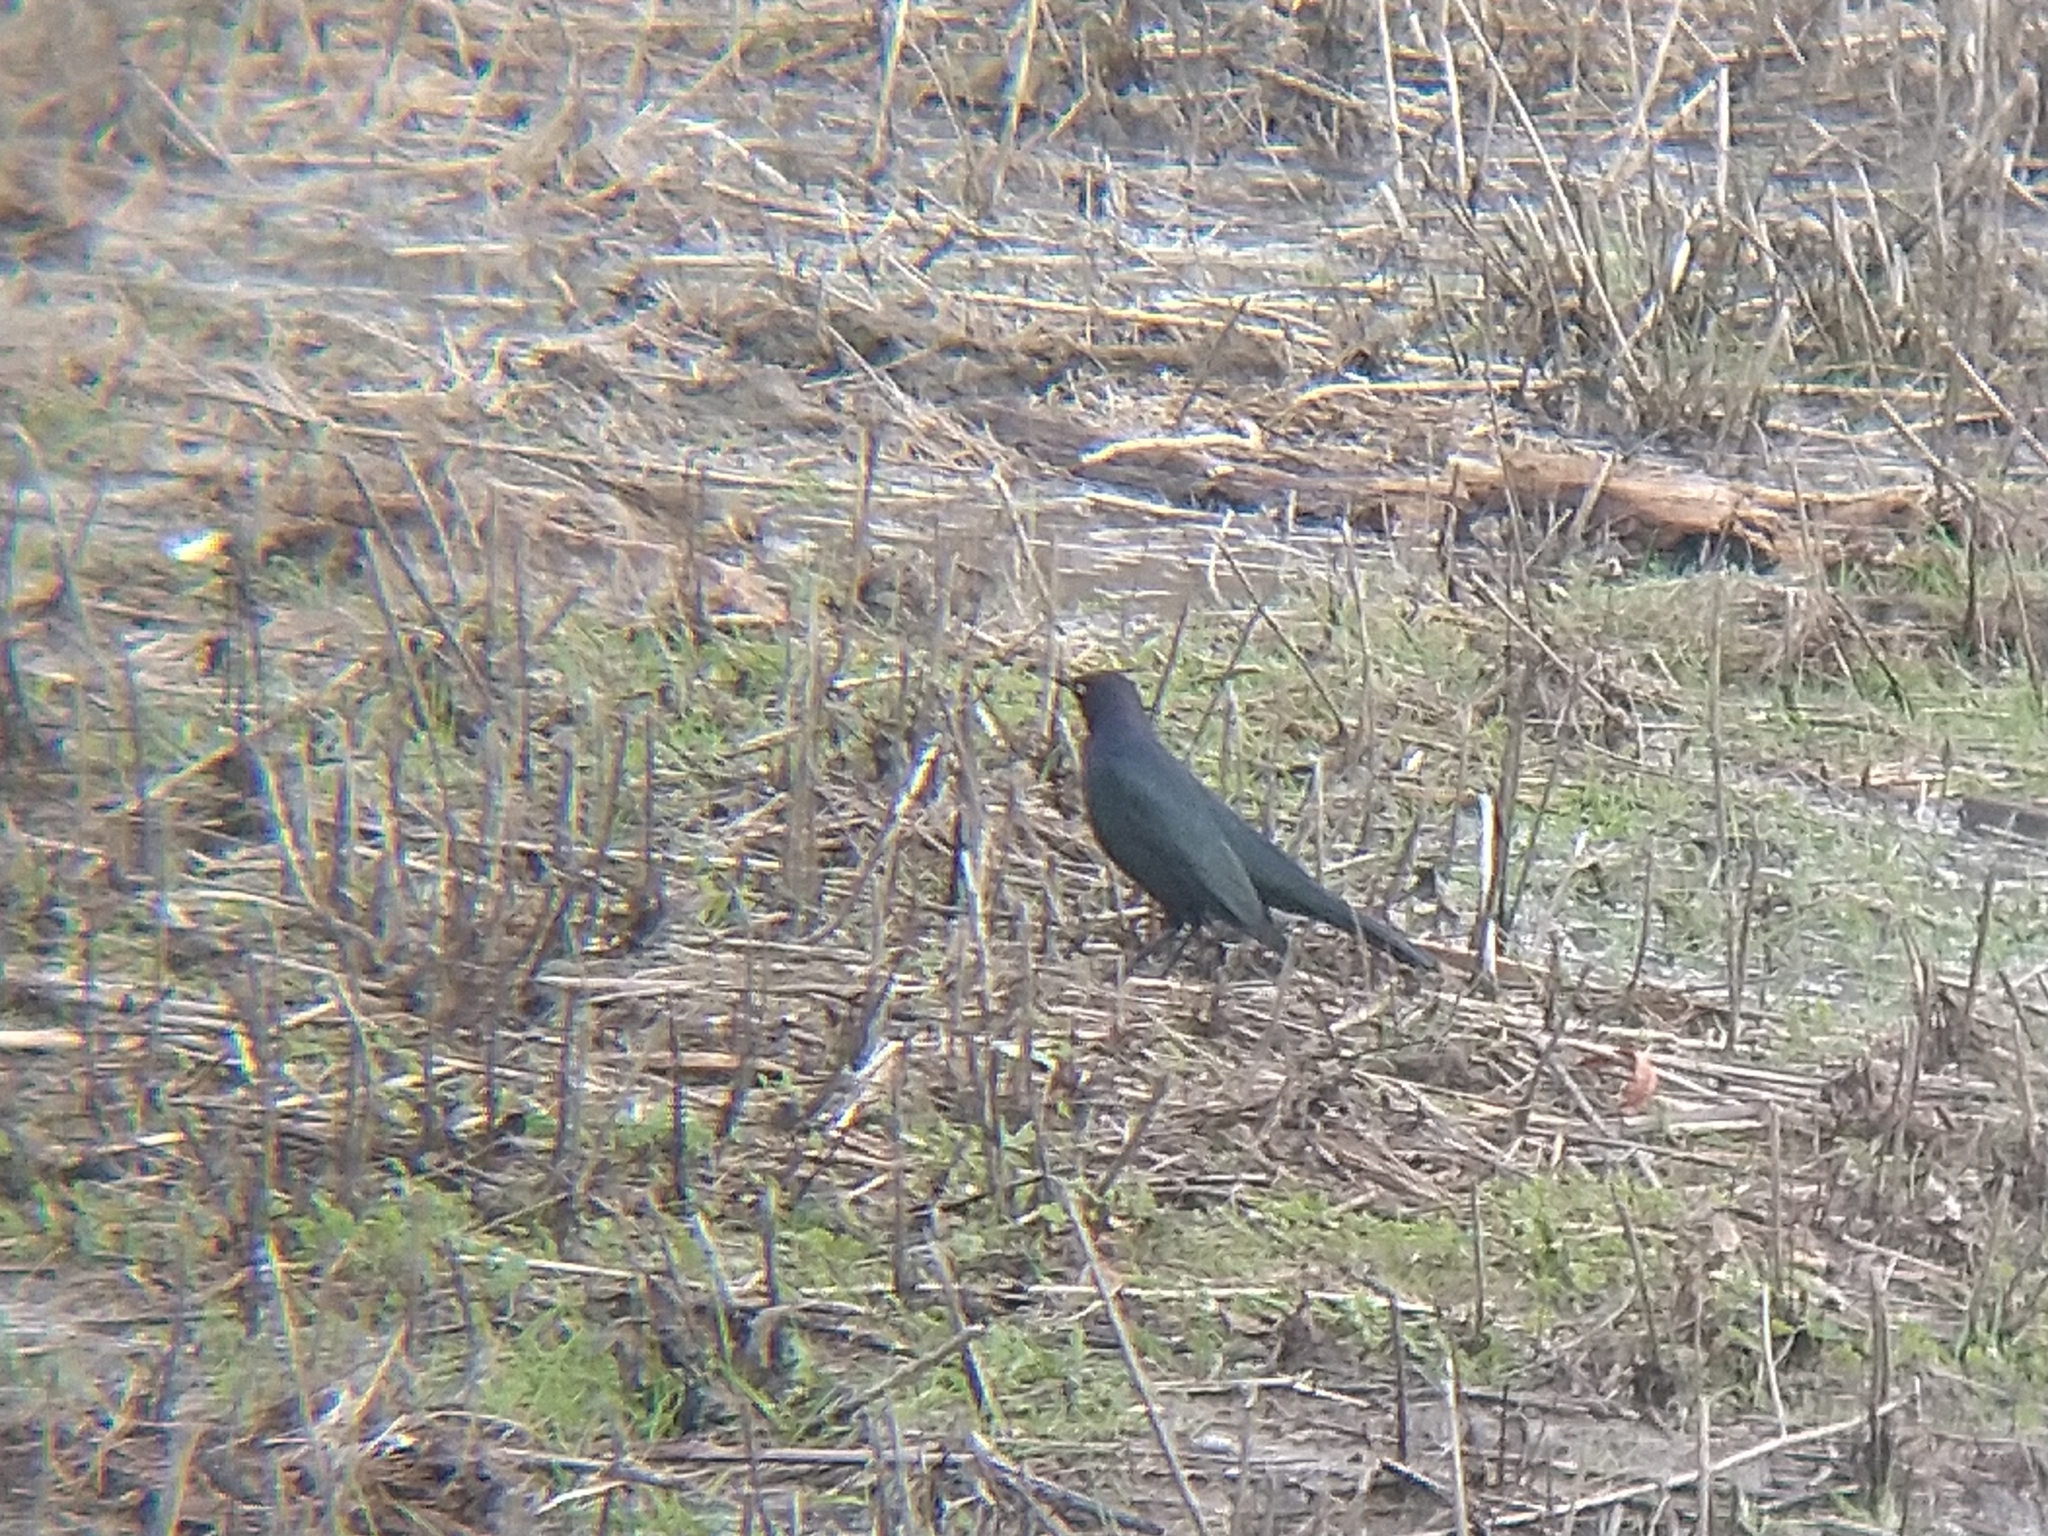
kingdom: Animalia
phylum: Chordata
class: Aves
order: Passeriformes
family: Icteridae
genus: Euphagus
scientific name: Euphagus cyanocephalus
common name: Brewer's blackbird
